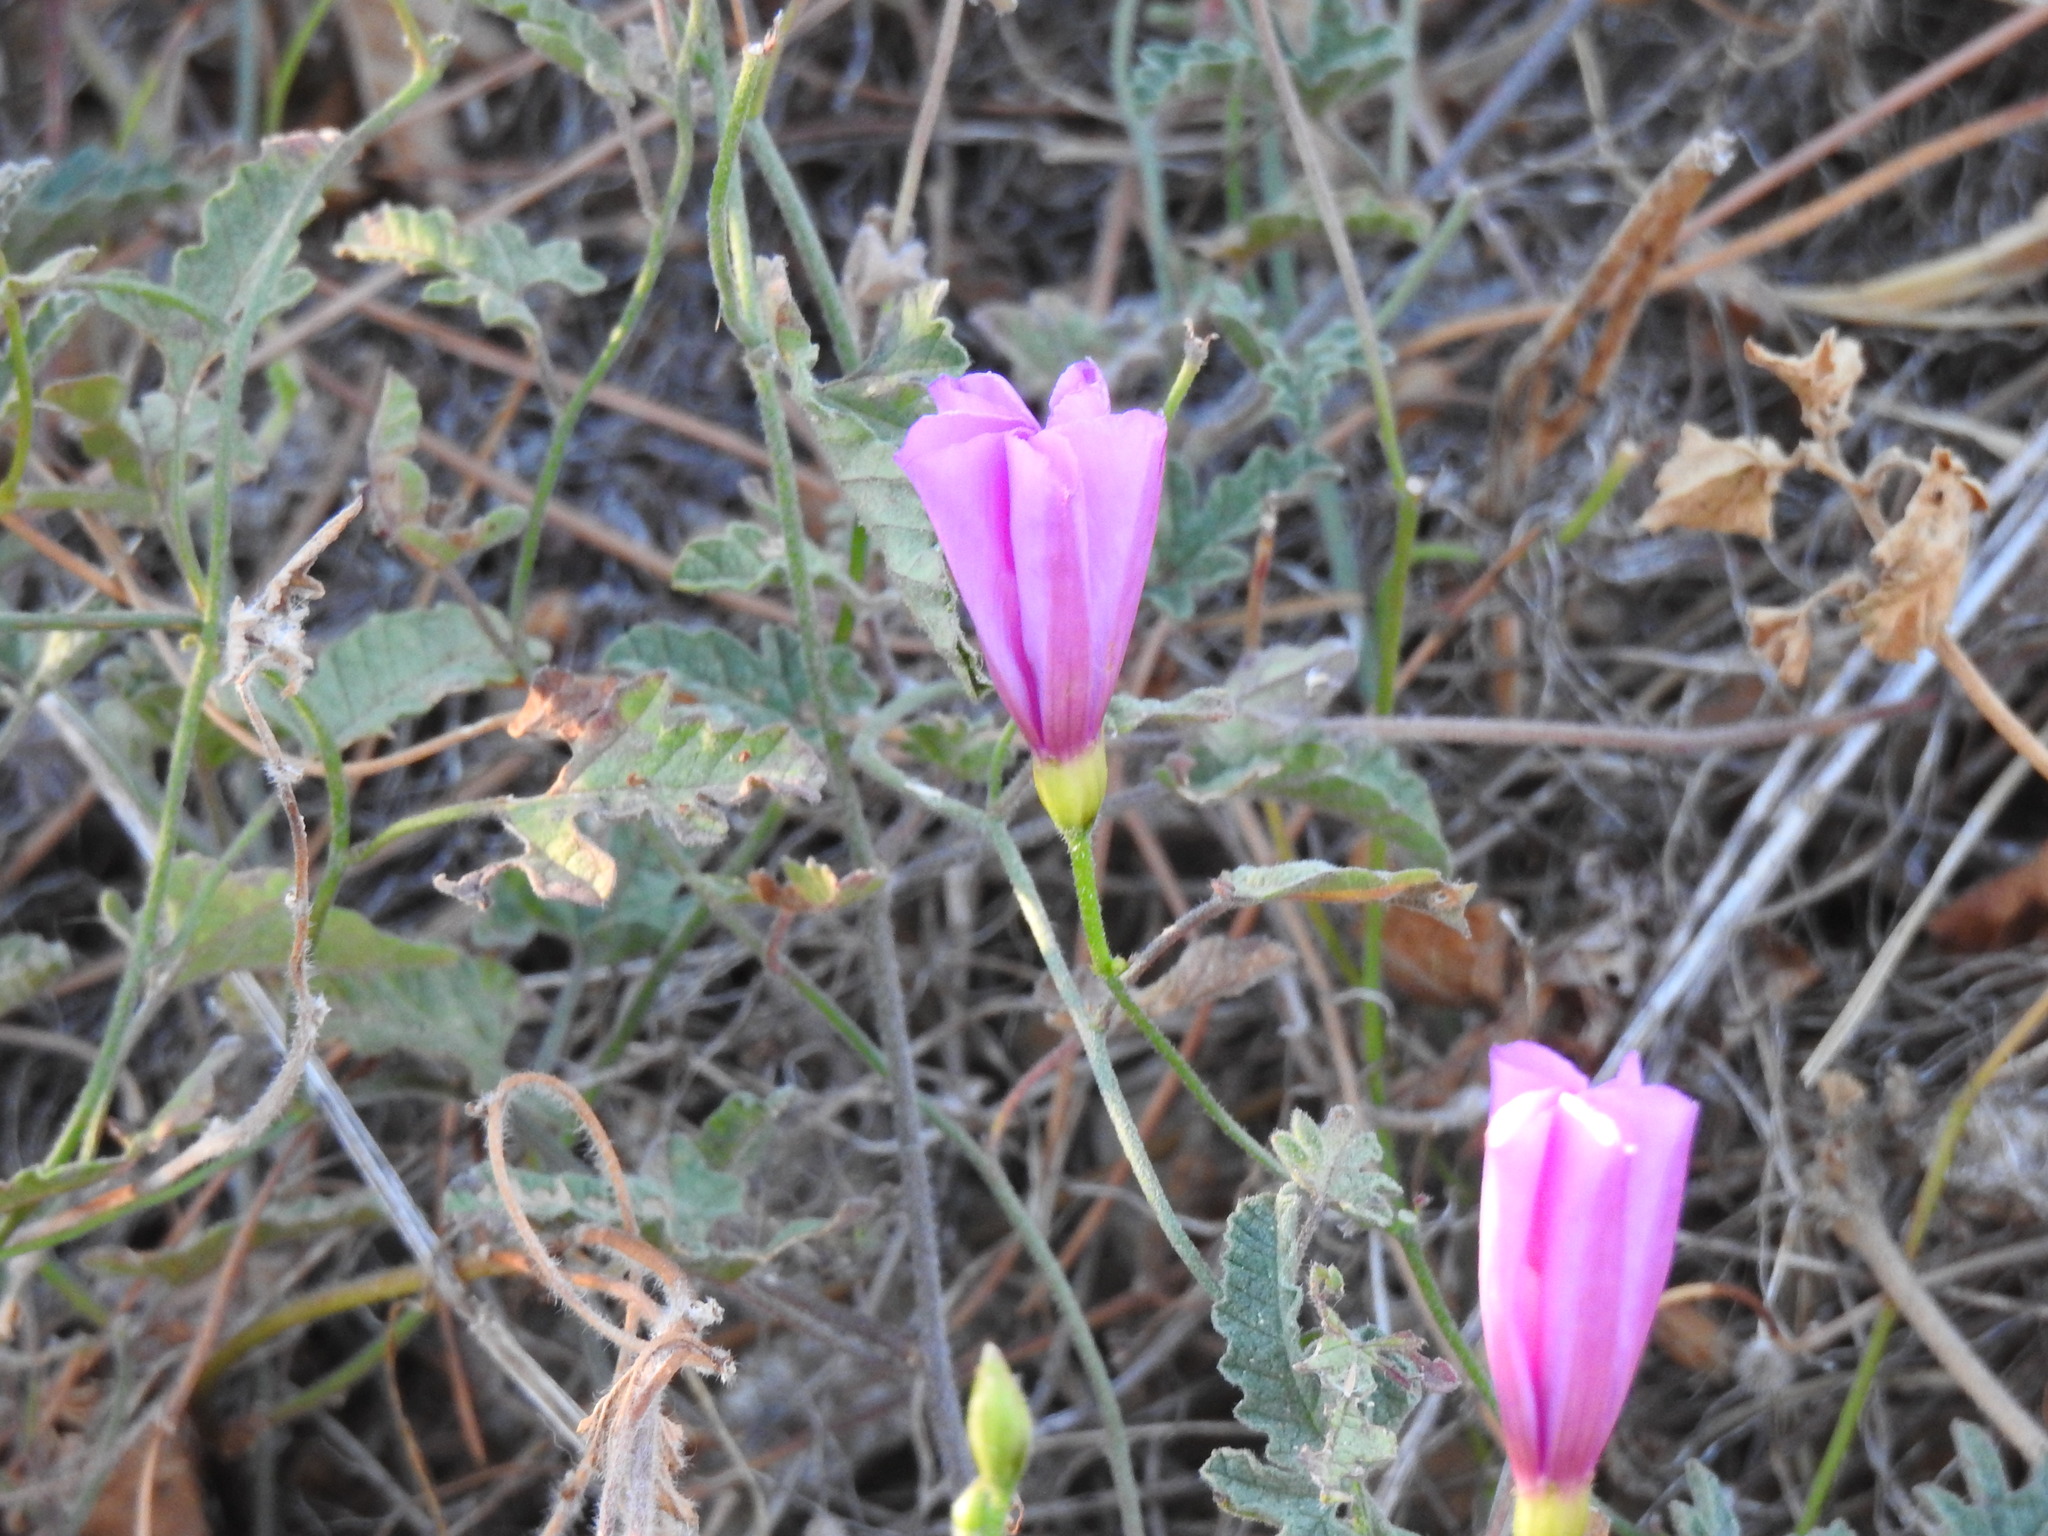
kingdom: Plantae
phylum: Tracheophyta
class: Magnoliopsida
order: Solanales
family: Convolvulaceae
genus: Convolvulus
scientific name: Convolvulus althaeoides
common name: Mallow bindweed
